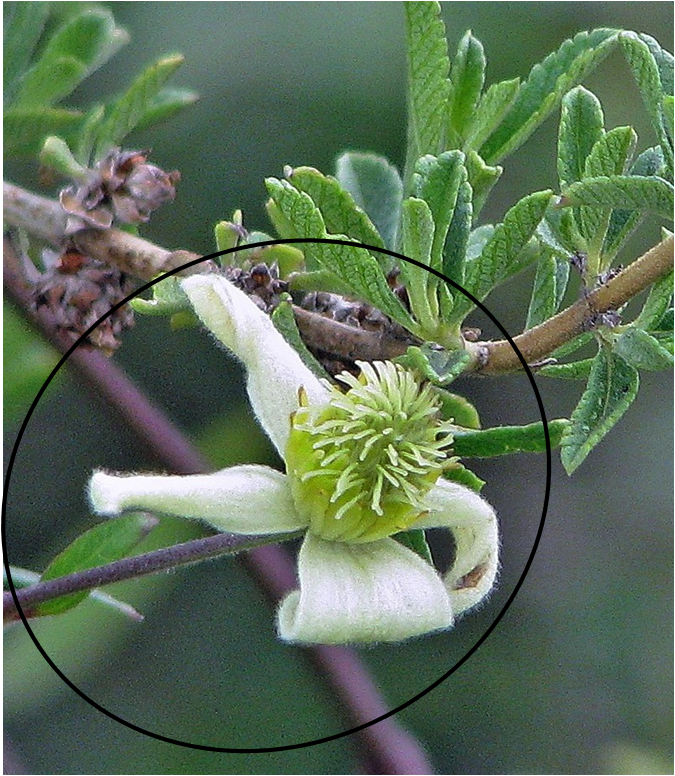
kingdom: Plantae
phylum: Tracheophyta
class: Magnoliopsida
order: Ranunculales
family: Ranunculaceae
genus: Clematis
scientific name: Clematis montevidensis
